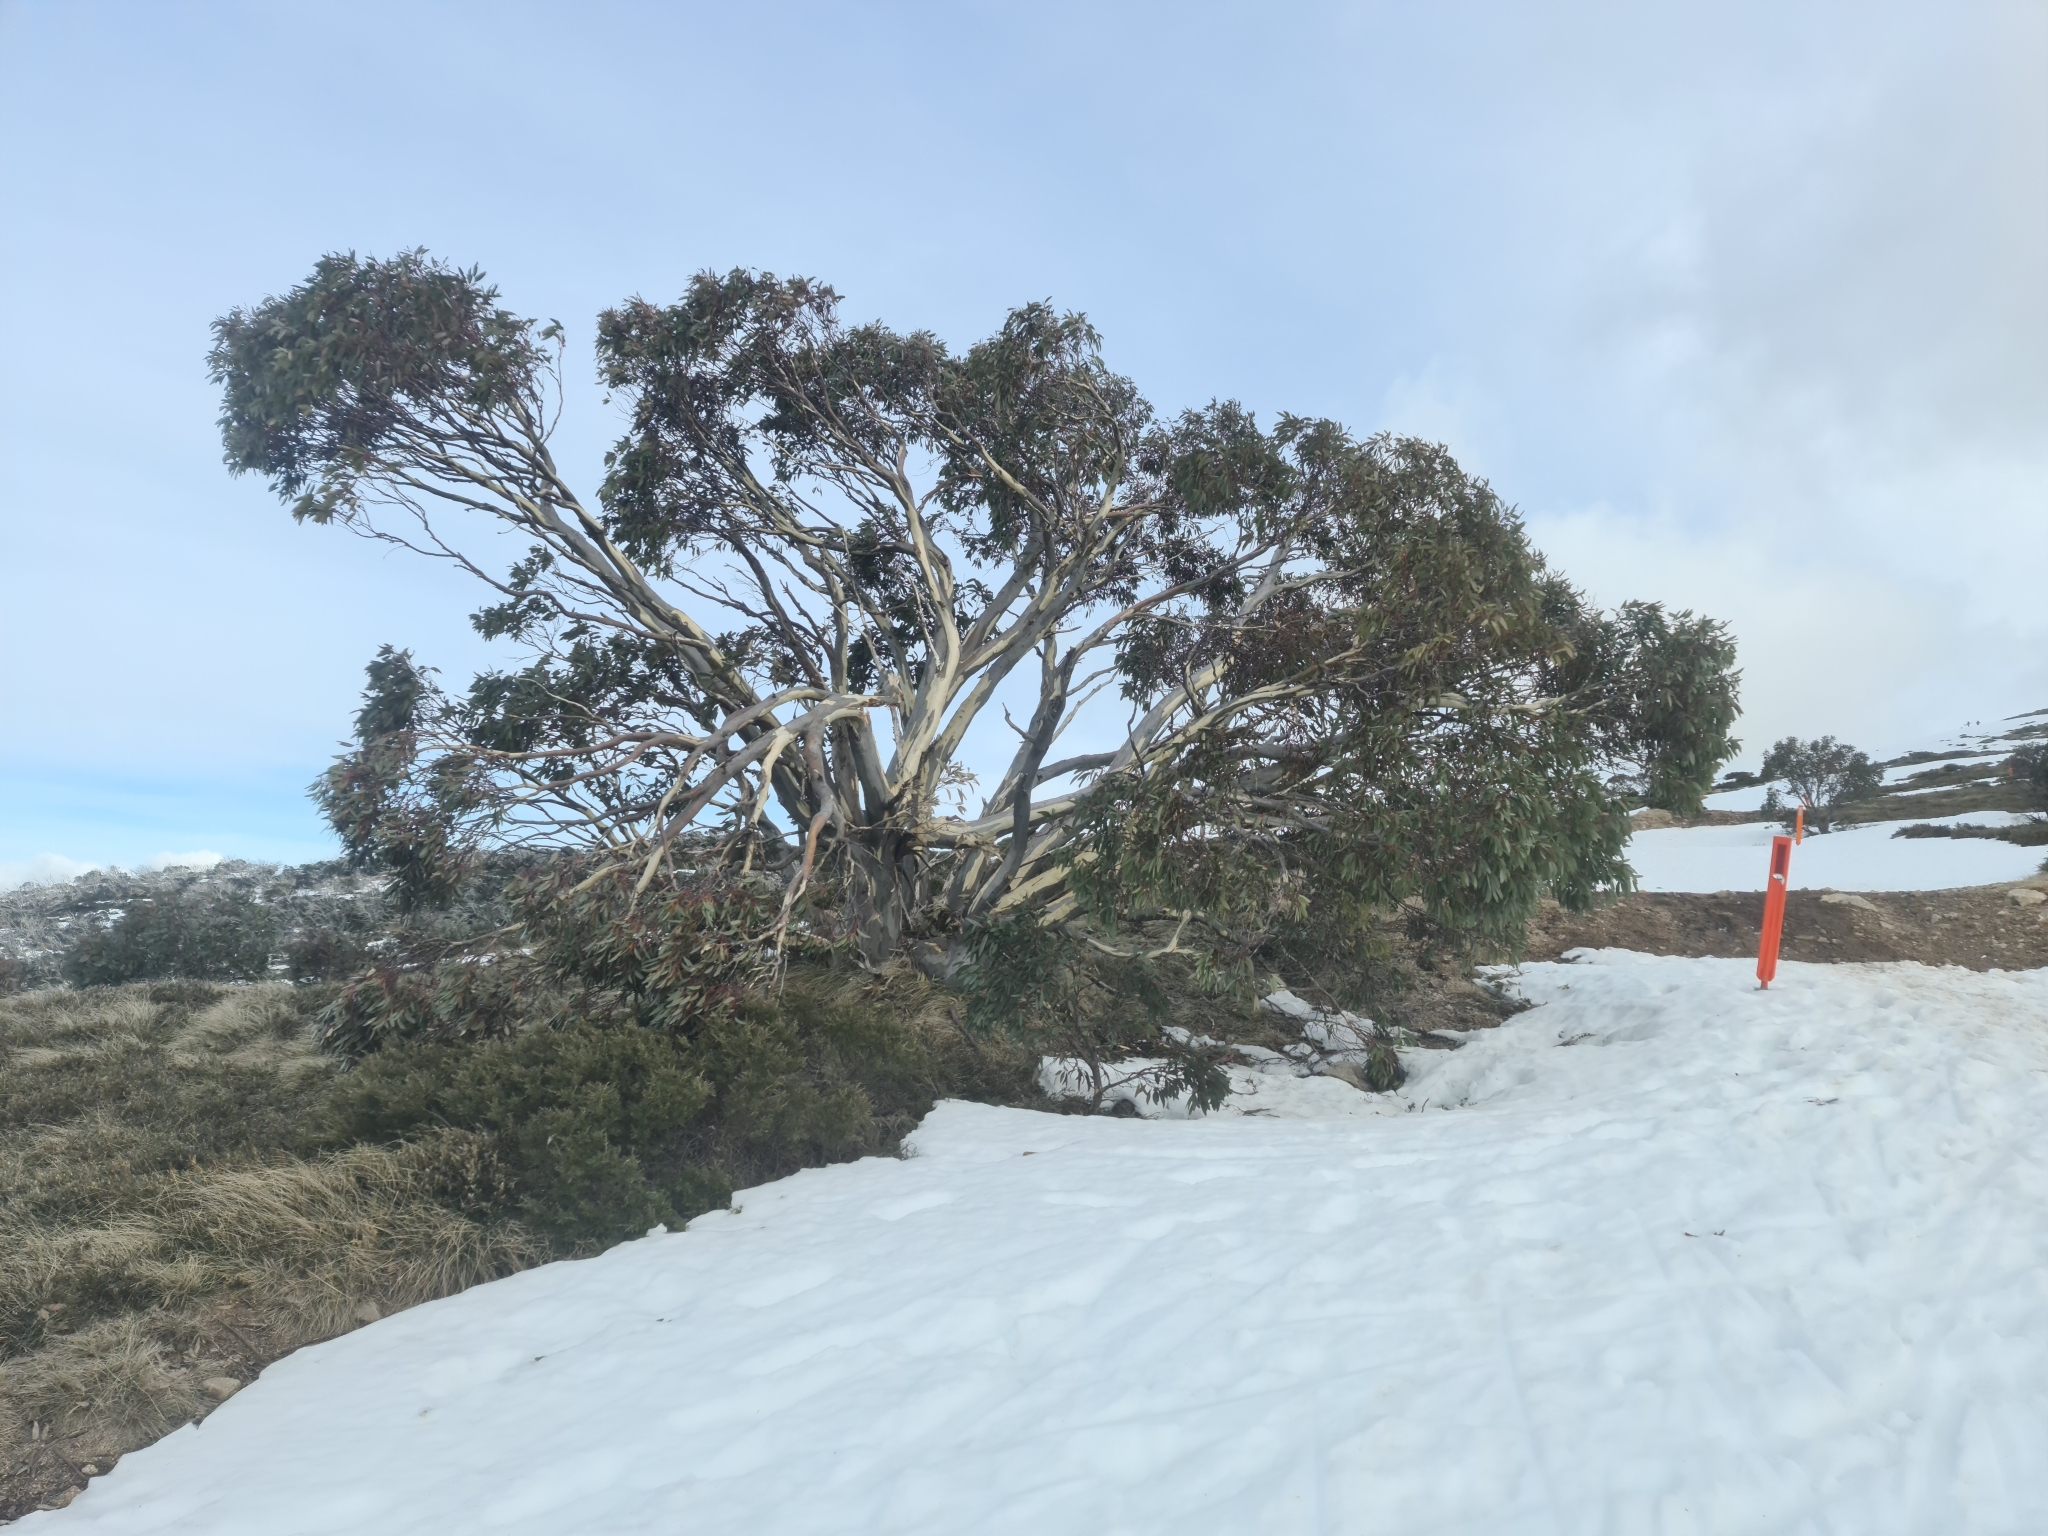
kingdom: Plantae
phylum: Tracheophyta
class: Magnoliopsida
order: Myrtales
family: Myrtaceae
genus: Eucalyptus
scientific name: Eucalyptus pauciflora
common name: Snow gum
